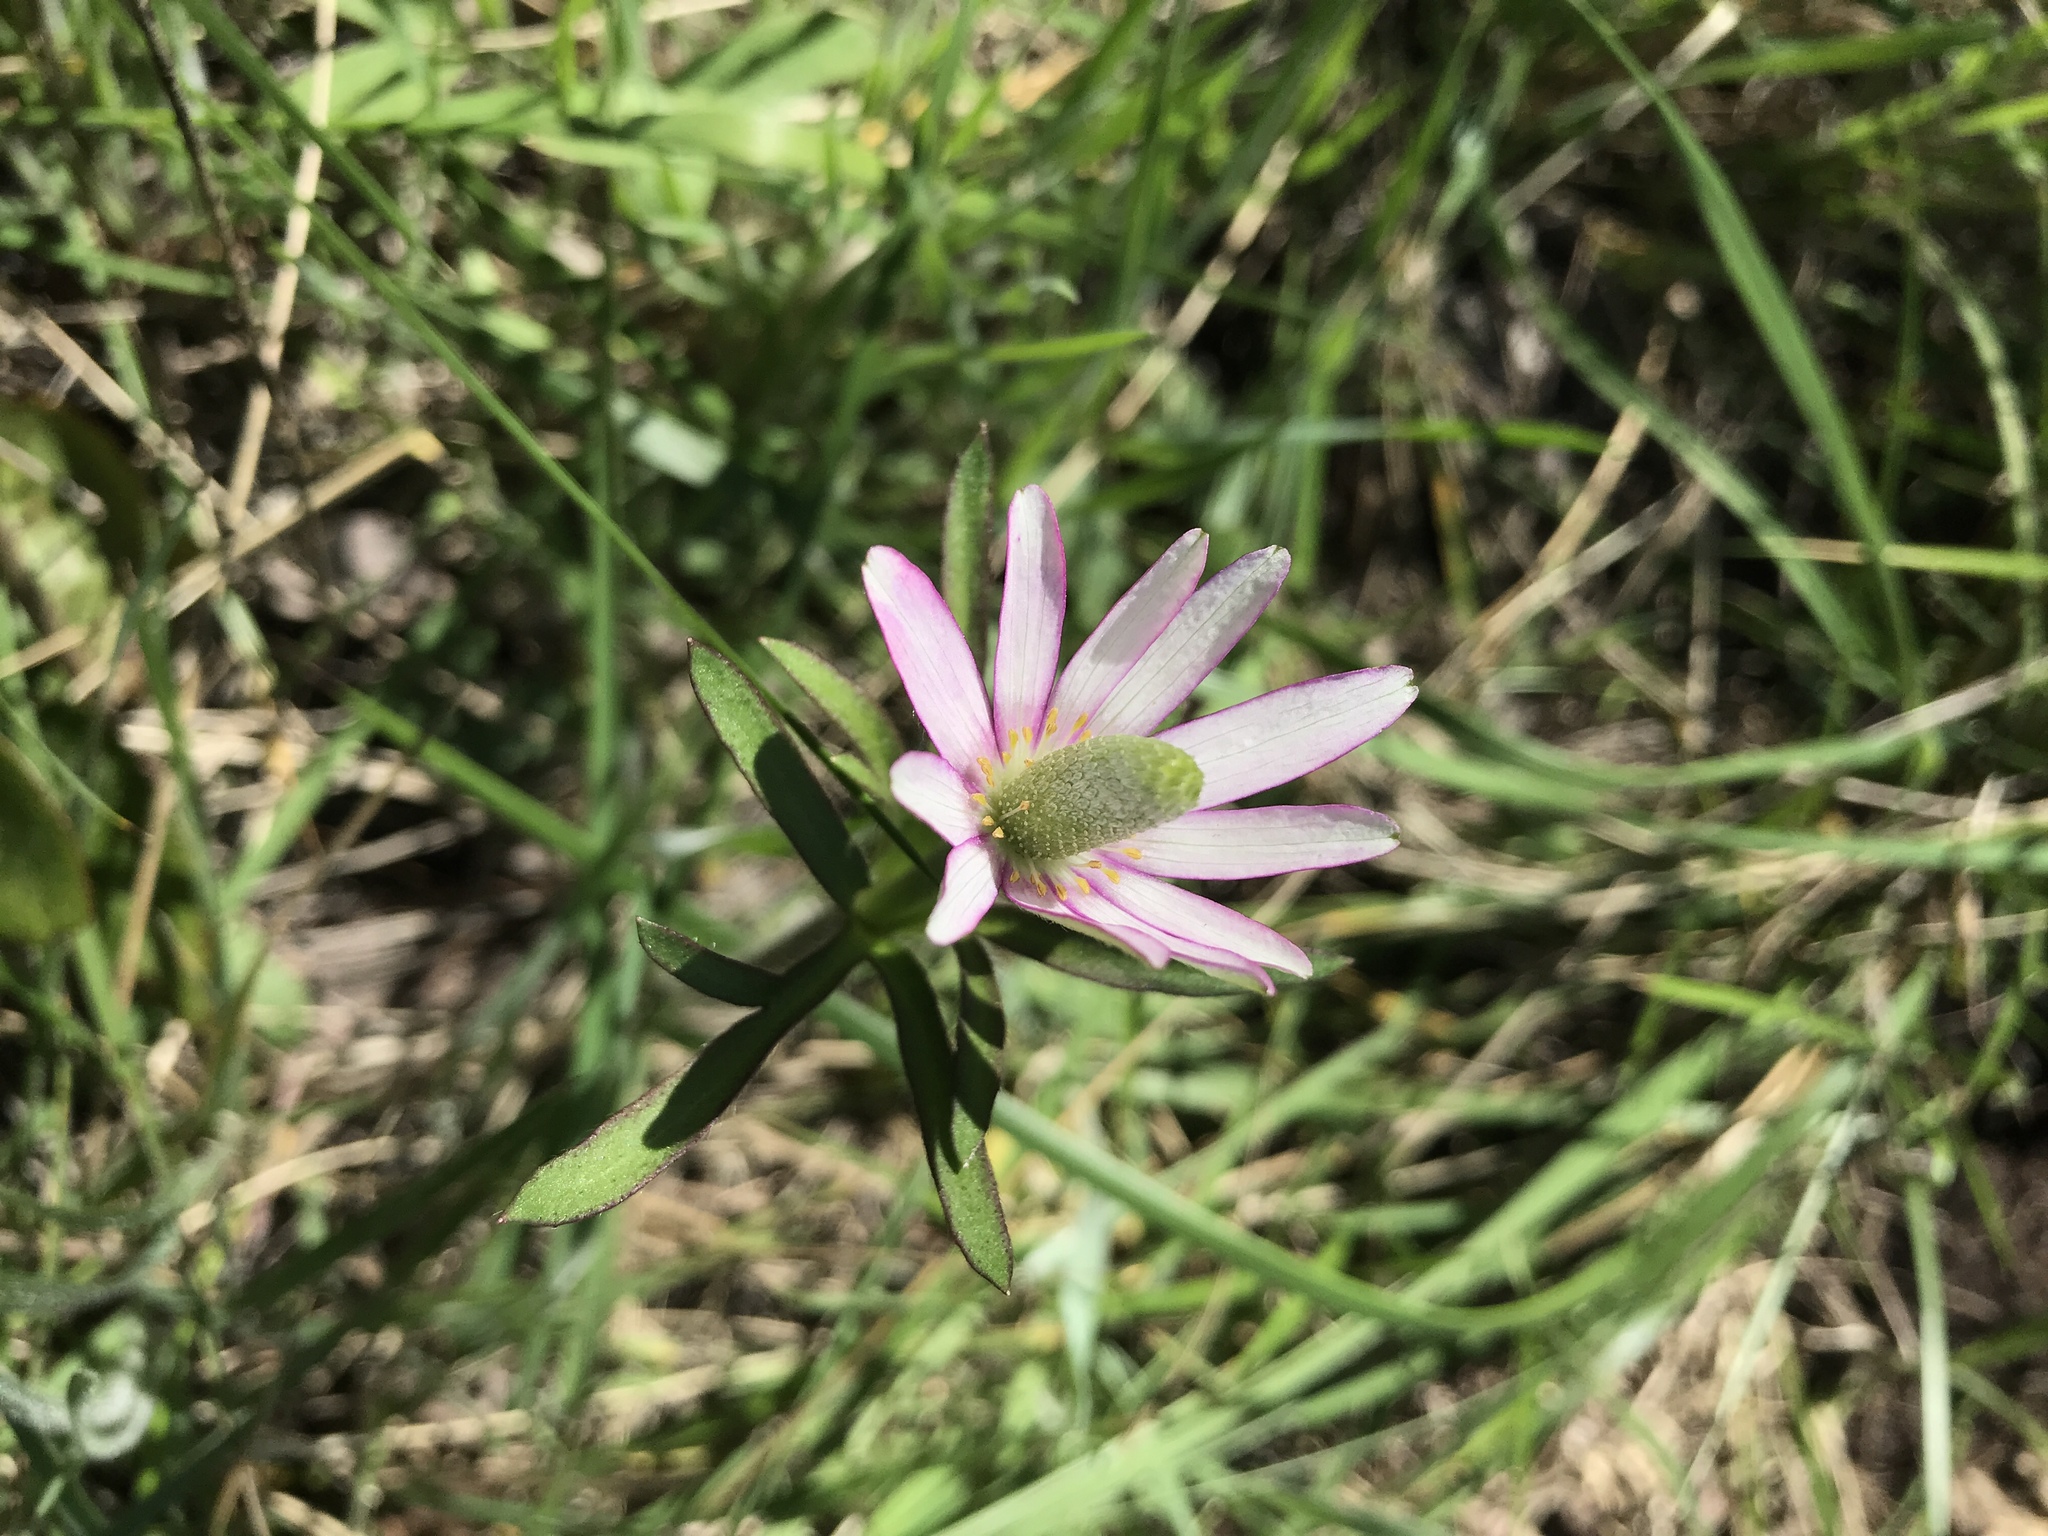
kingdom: Plantae
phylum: Tracheophyta
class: Magnoliopsida
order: Ranunculales
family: Ranunculaceae
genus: Anemone
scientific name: Anemone berlandieri
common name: Ten-petal anemone
